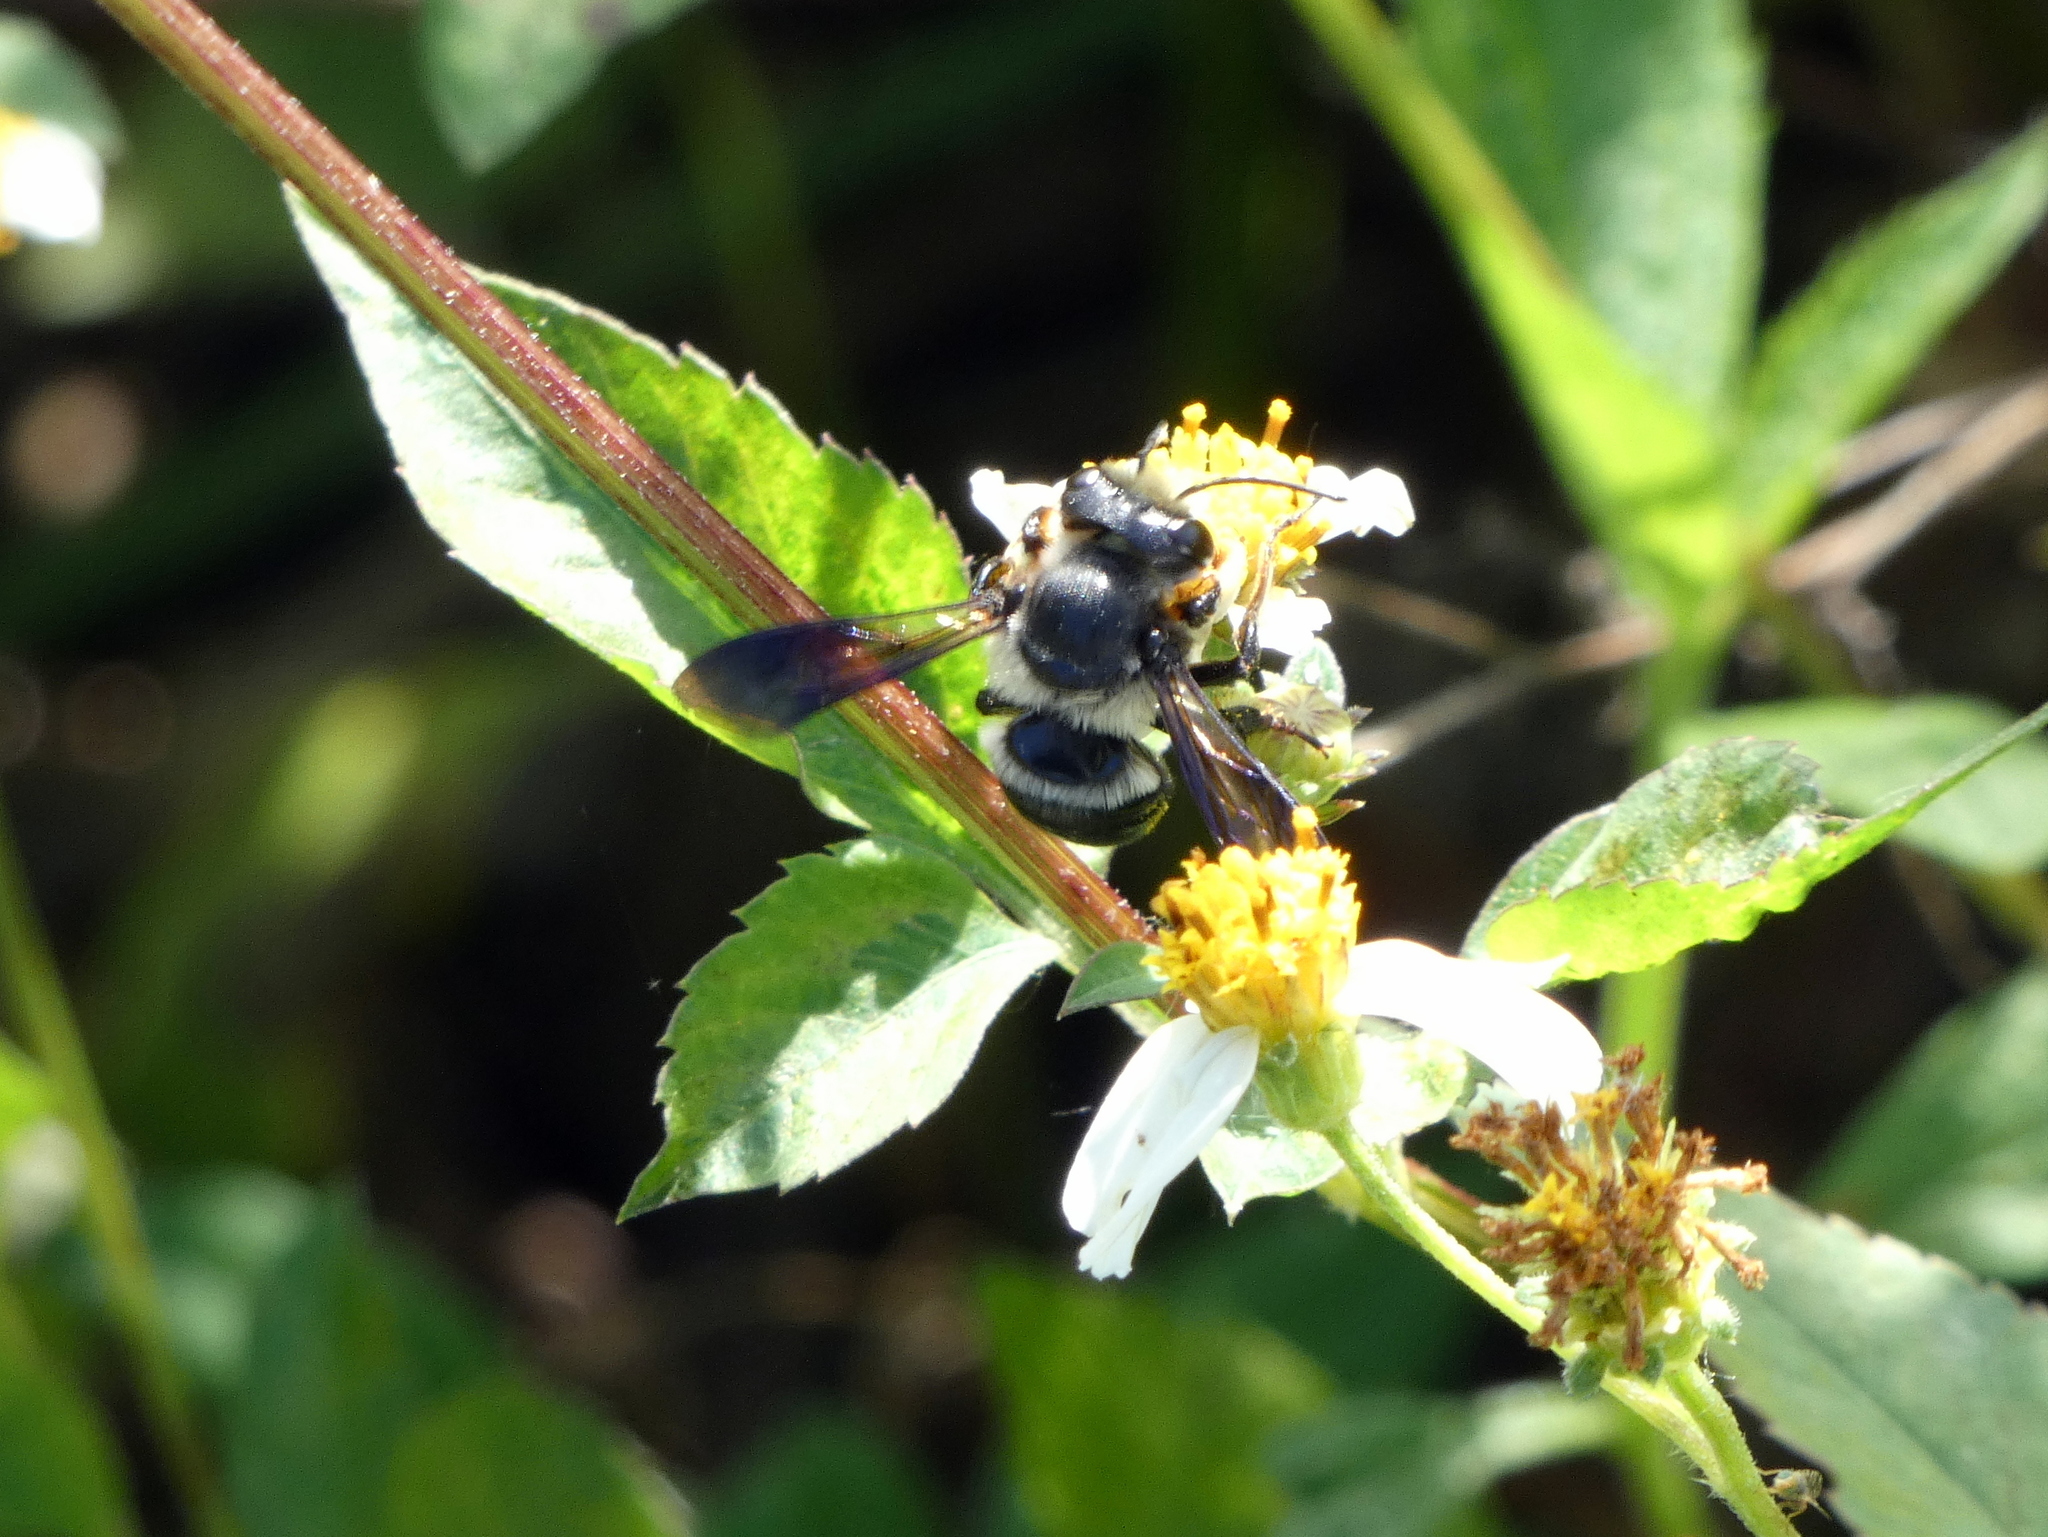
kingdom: Animalia
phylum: Arthropoda
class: Insecta
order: Hymenoptera
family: Megachilidae
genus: Megachile
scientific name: Megachile xylocopoides
